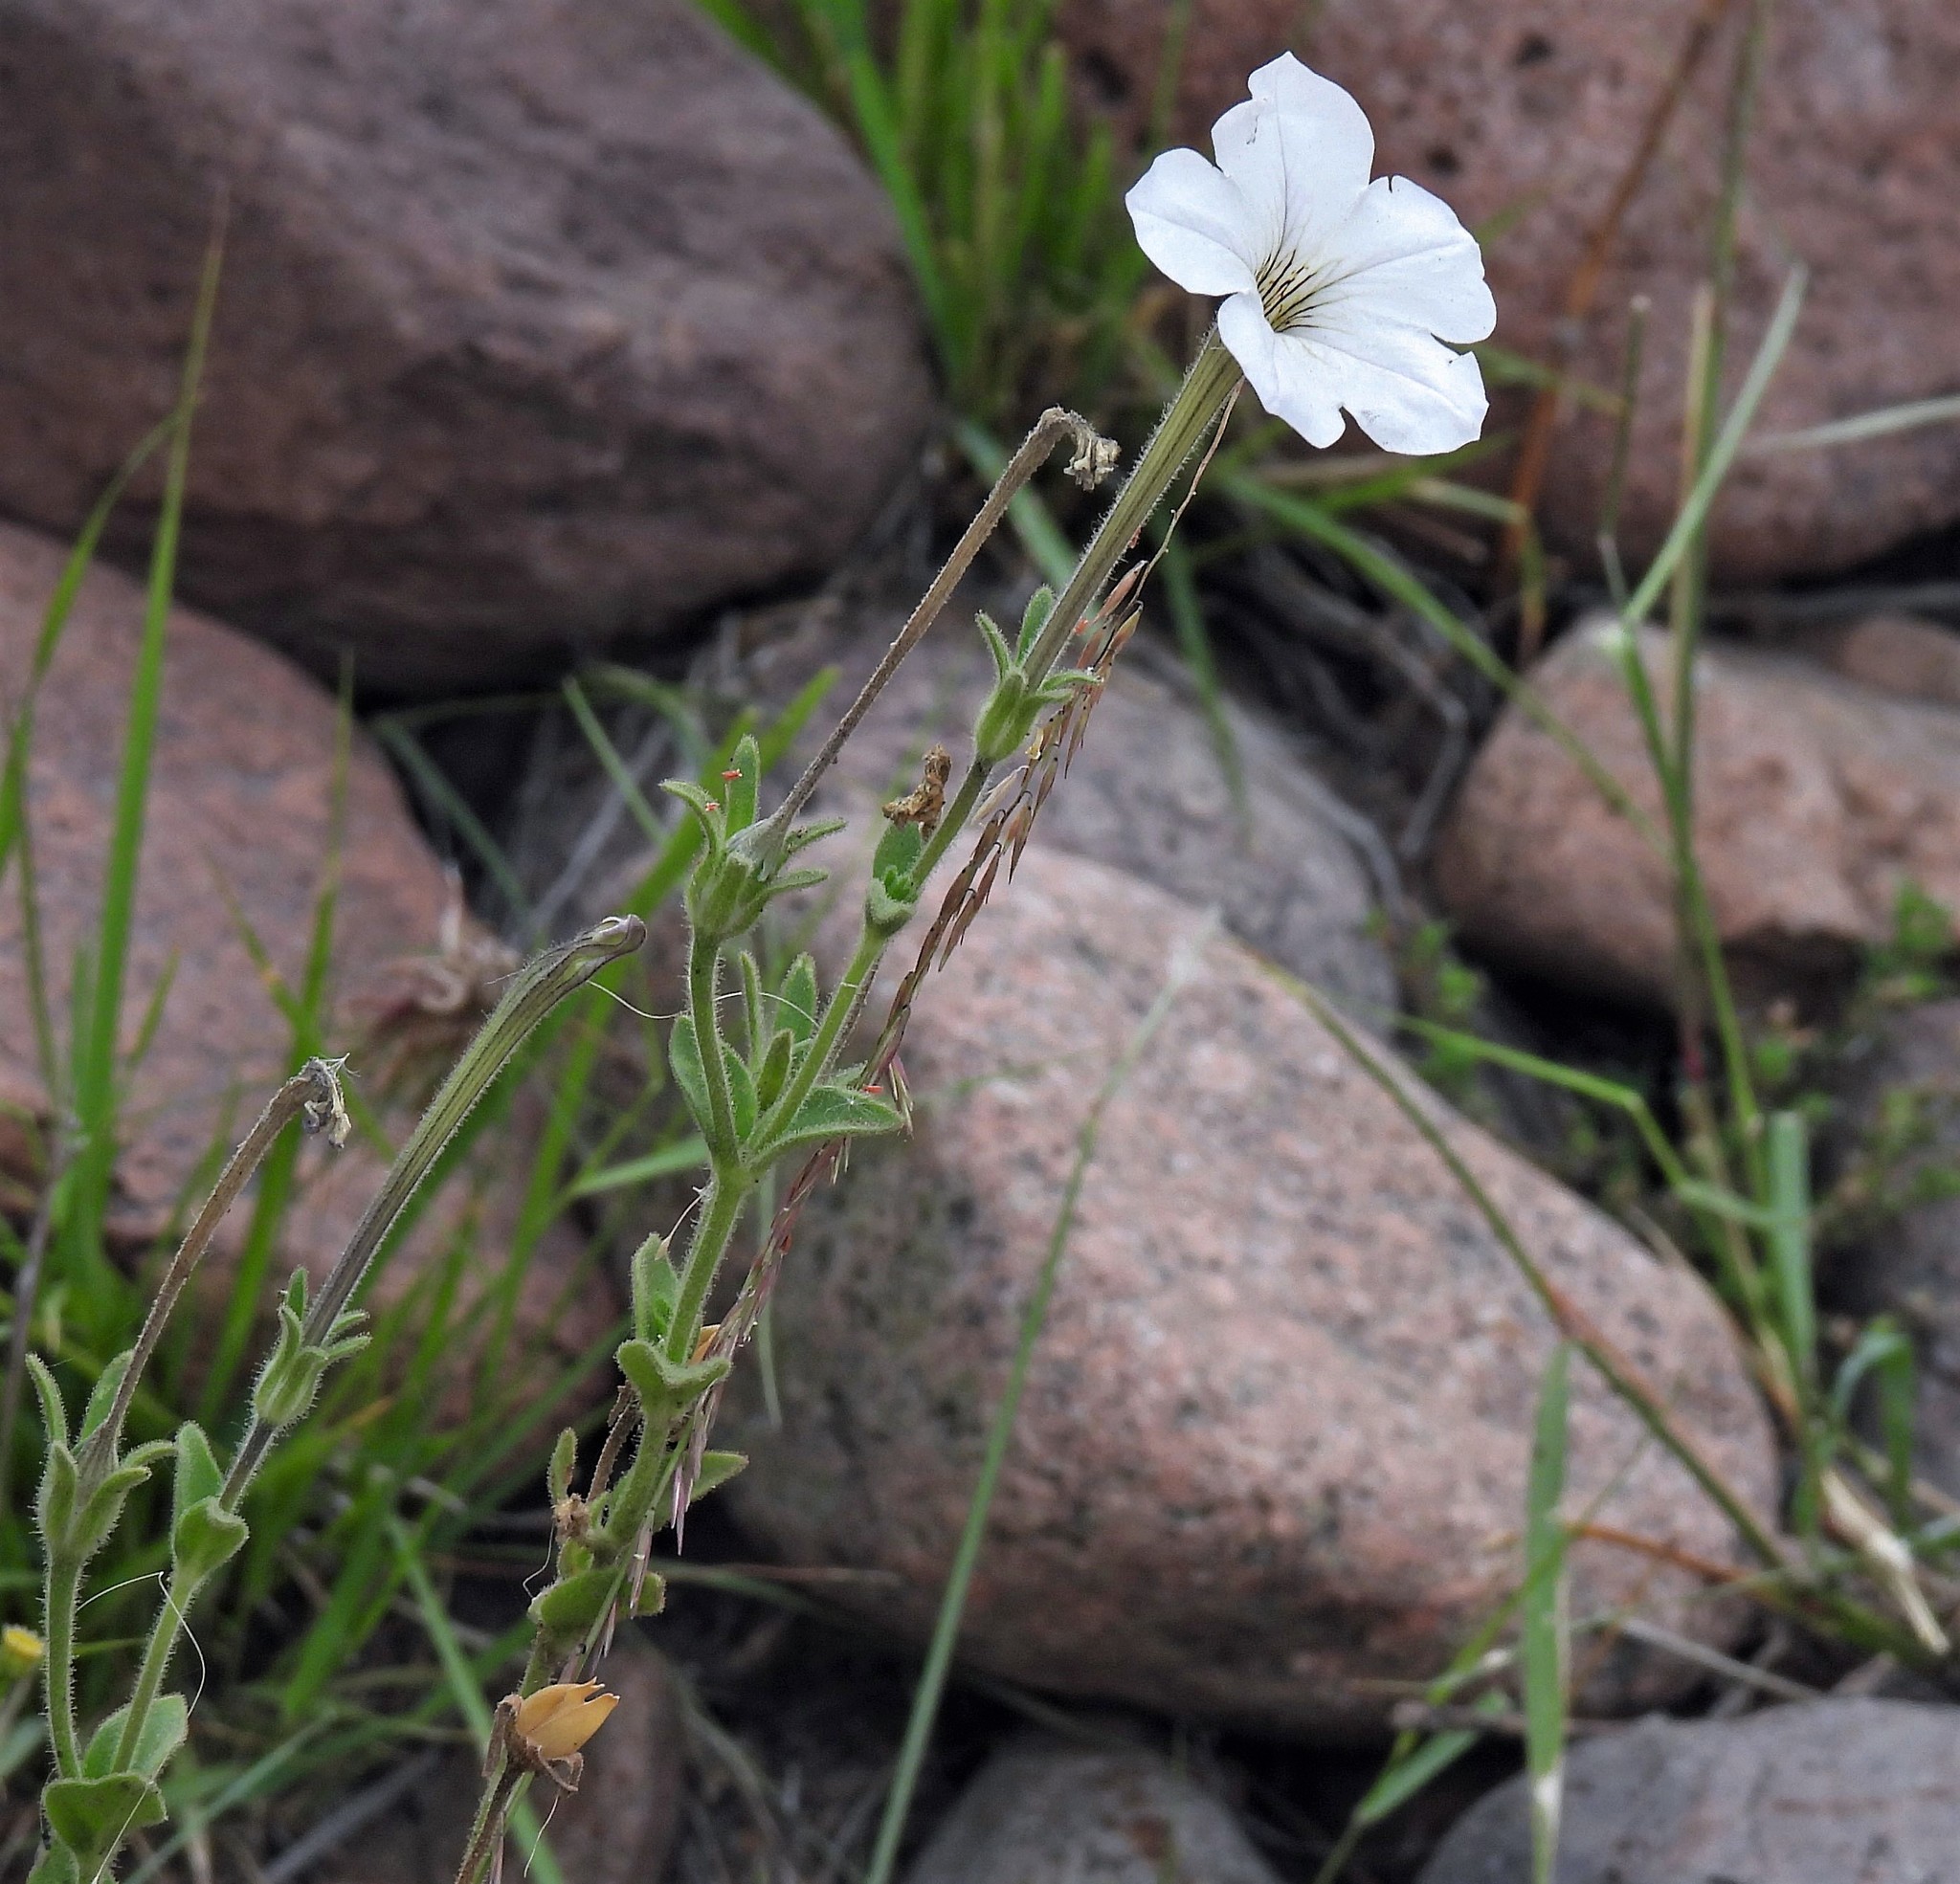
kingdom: Plantae
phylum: Tracheophyta
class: Magnoliopsida
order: Solanales
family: Solanaceae
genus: Petunia
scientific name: Petunia axillaris
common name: Large white petunia
